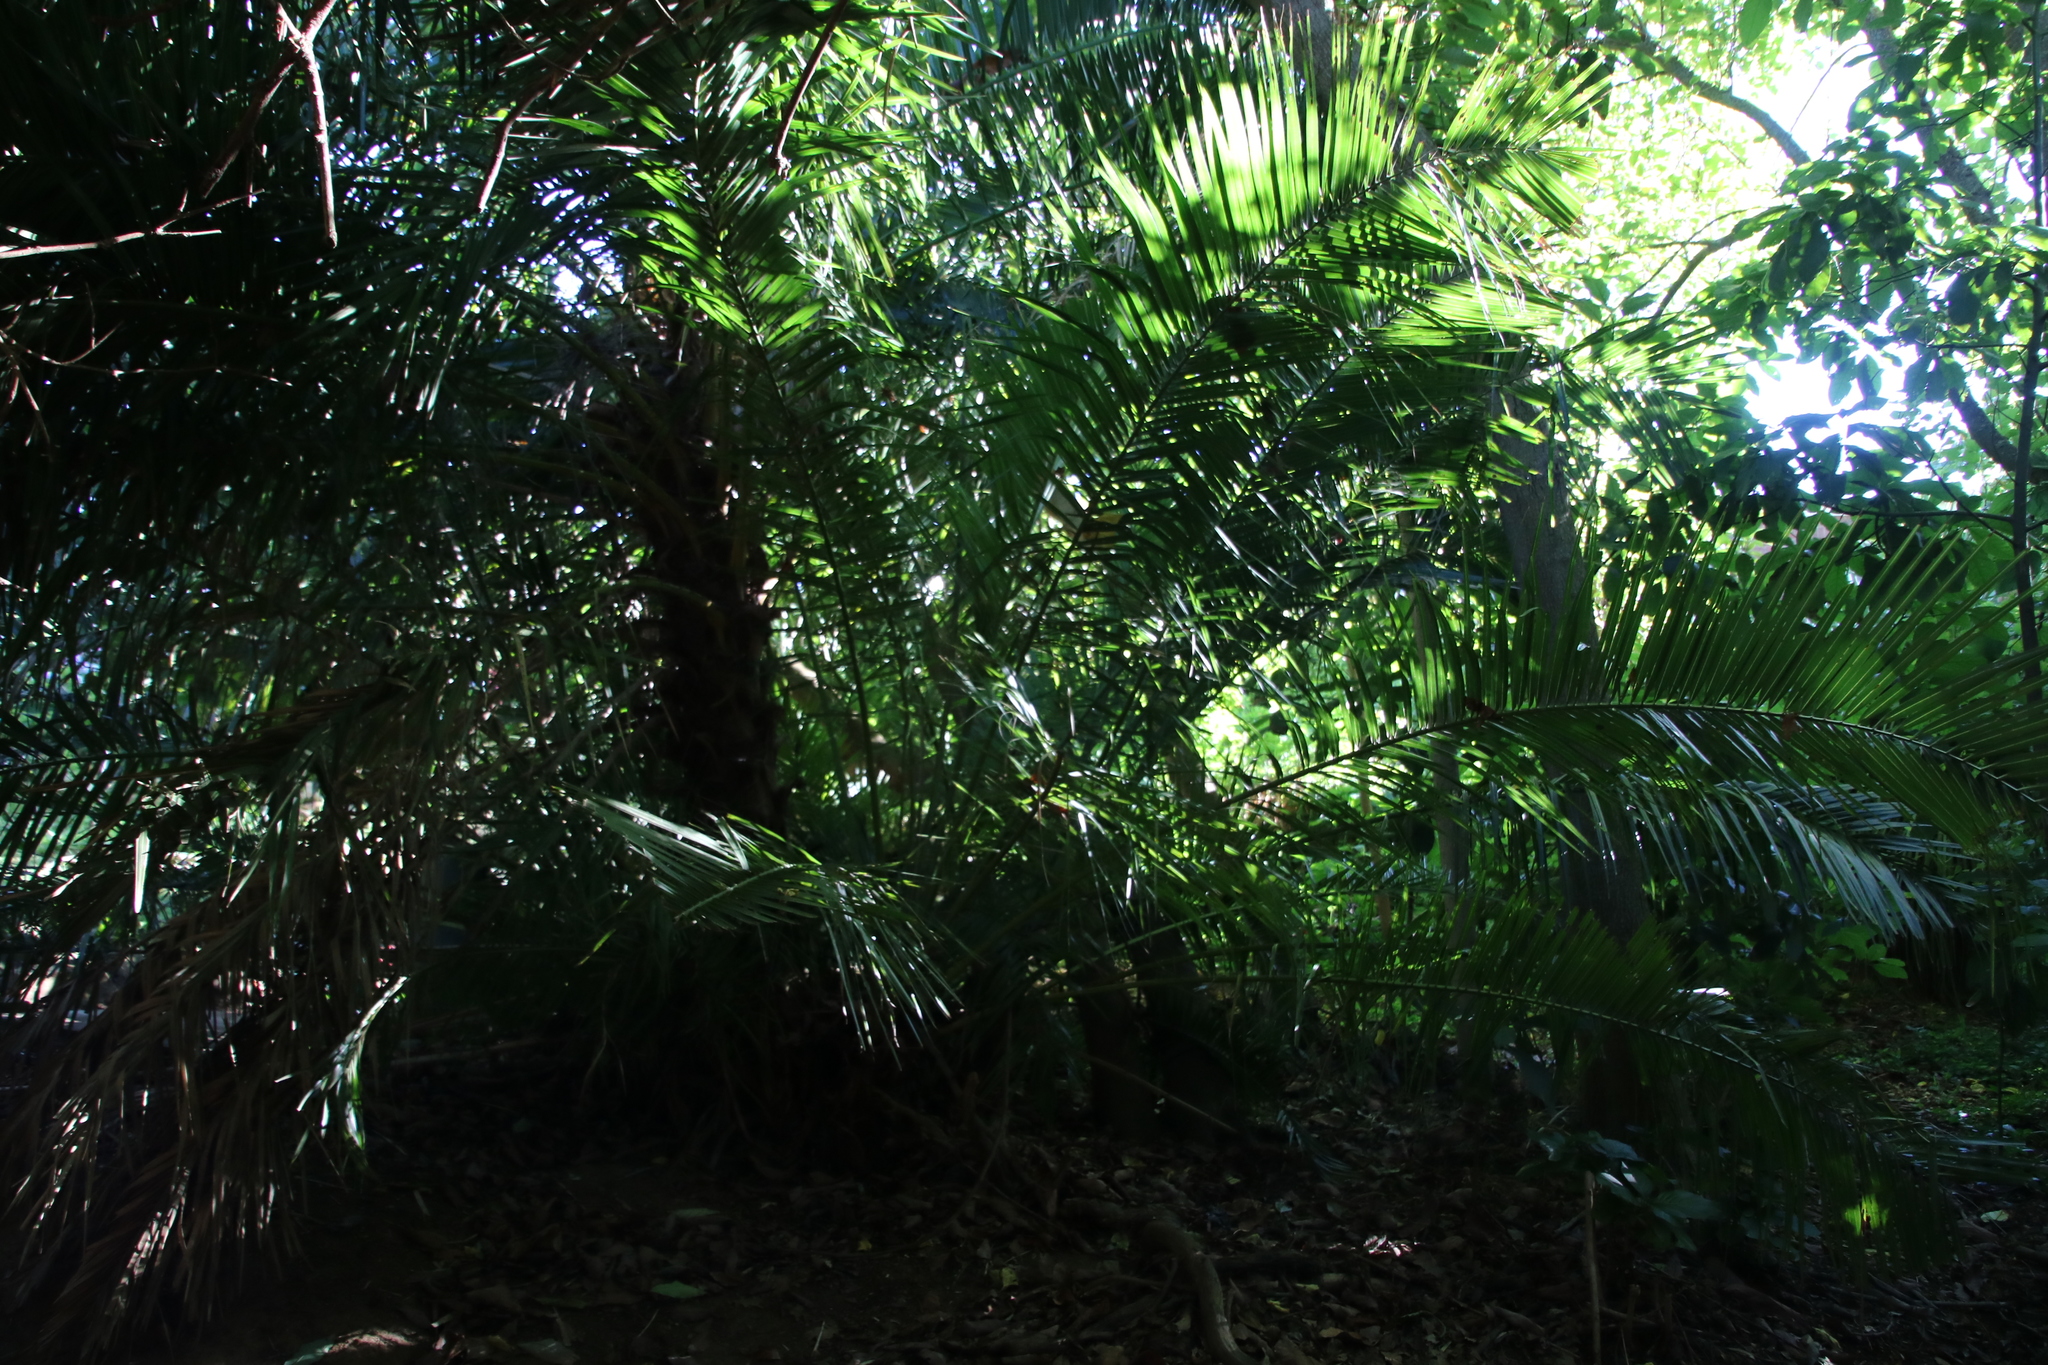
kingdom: Plantae
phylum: Tracheophyta
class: Liliopsida
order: Arecales
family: Arecaceae
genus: Phoenix
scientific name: Phoenix reclinata
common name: Senegal date palm
